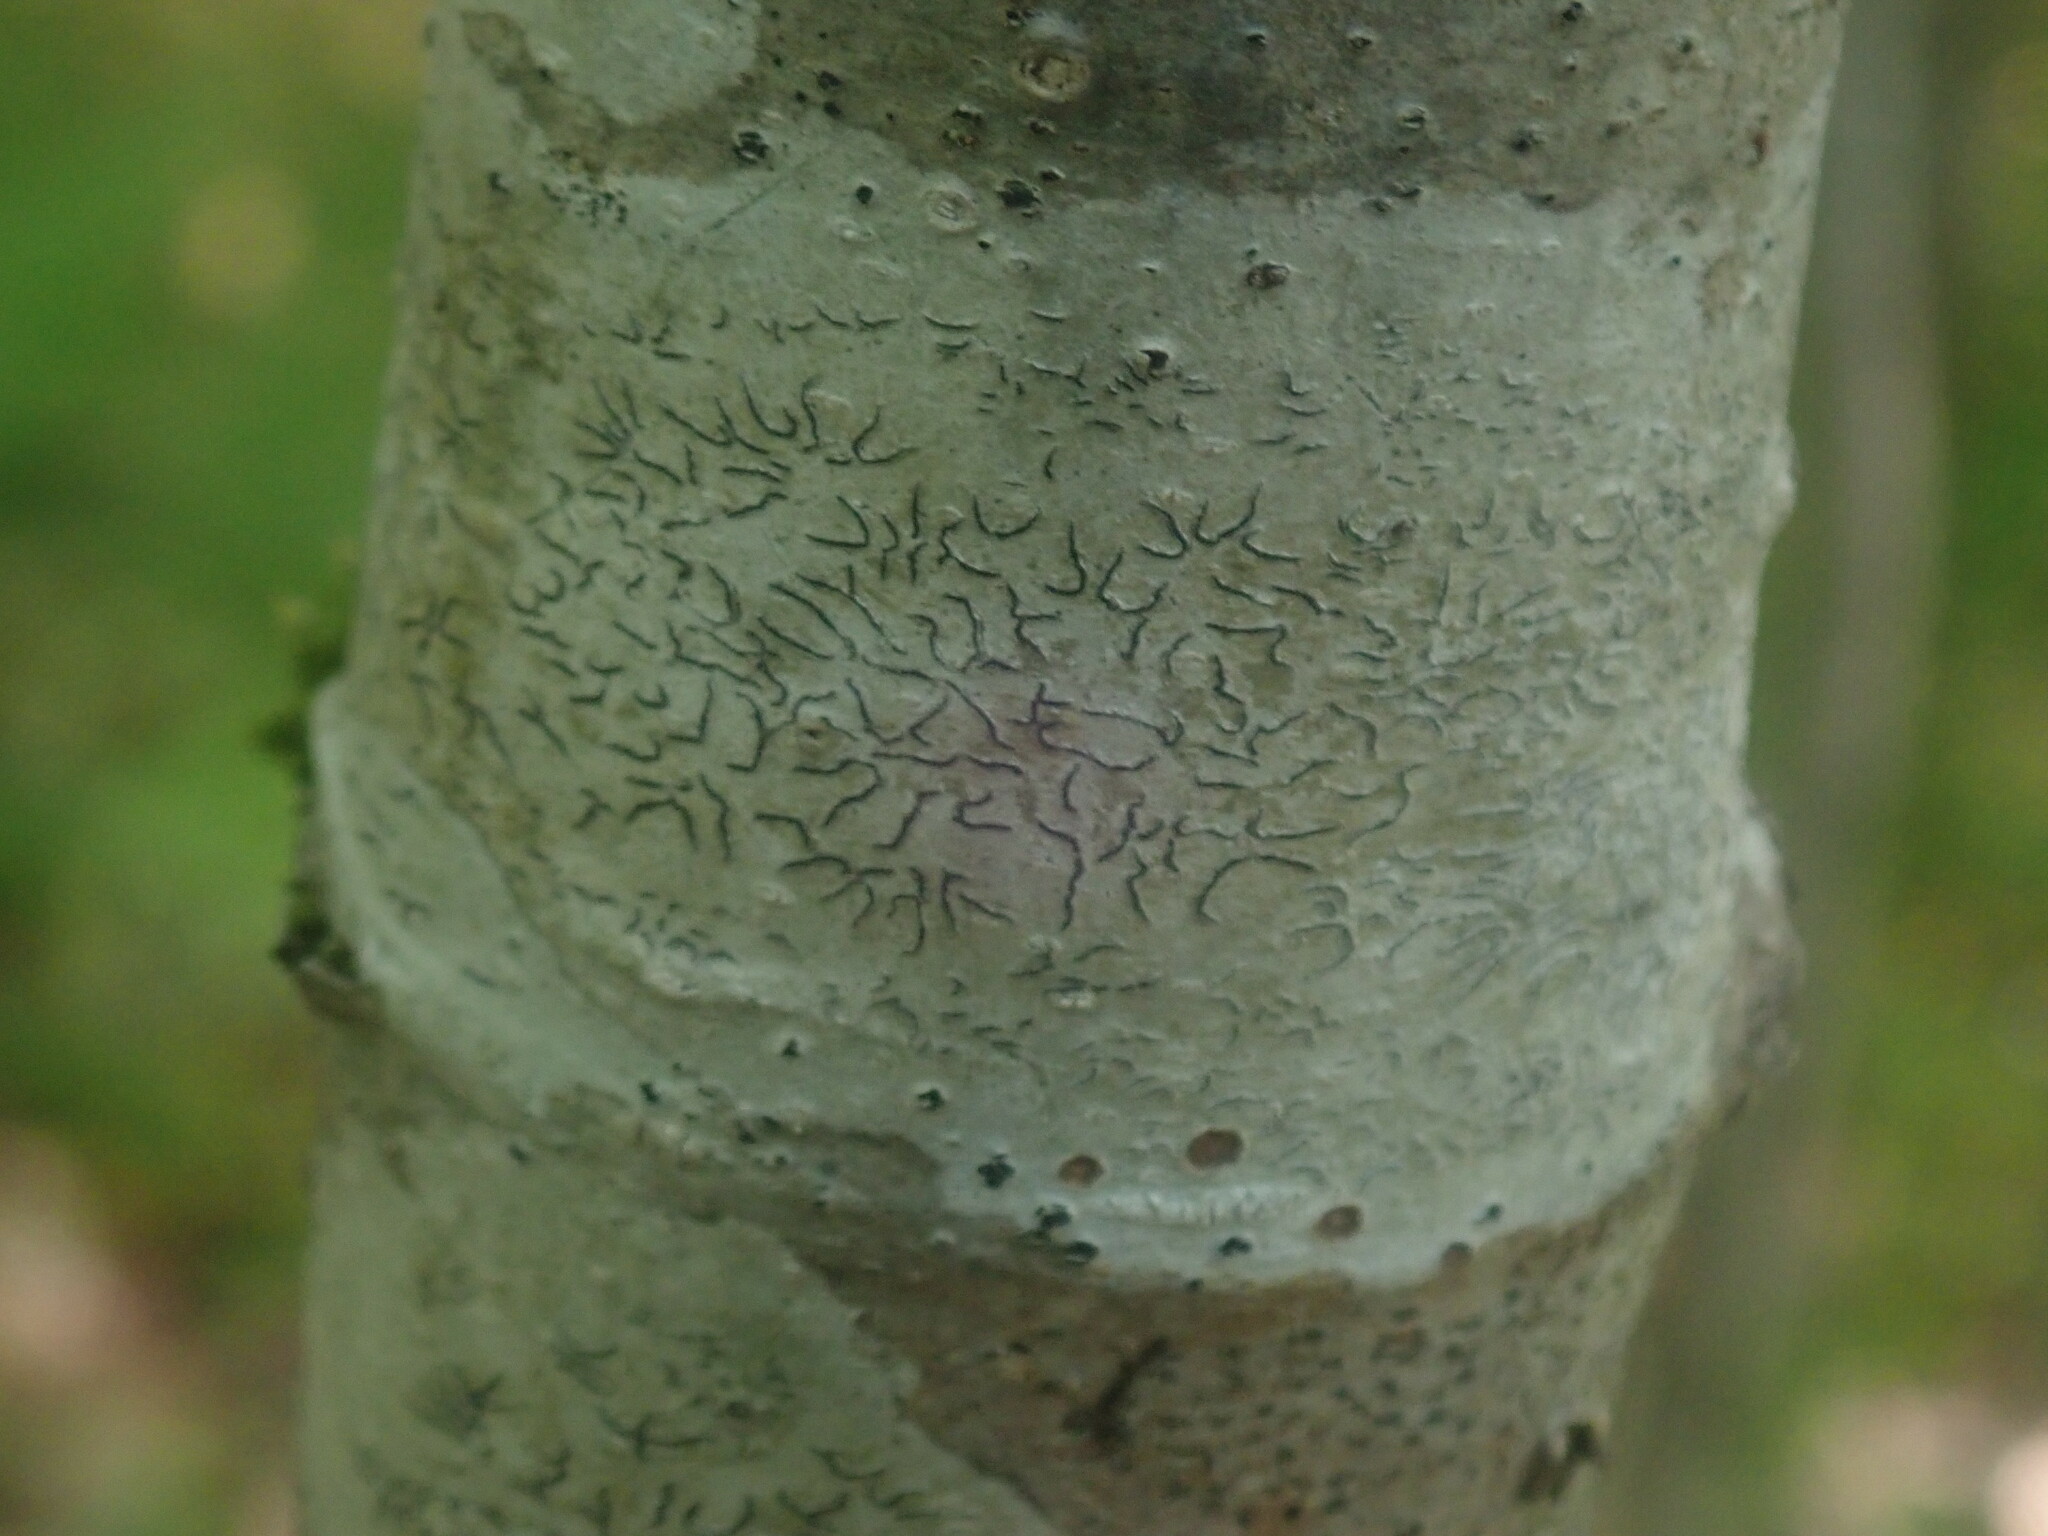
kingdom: Fungi
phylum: Ascomycota
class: Lecanoromycetes
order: Ostropales
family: Graphidaceae
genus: Graphis
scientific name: Graphis scripta
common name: Script lichen
